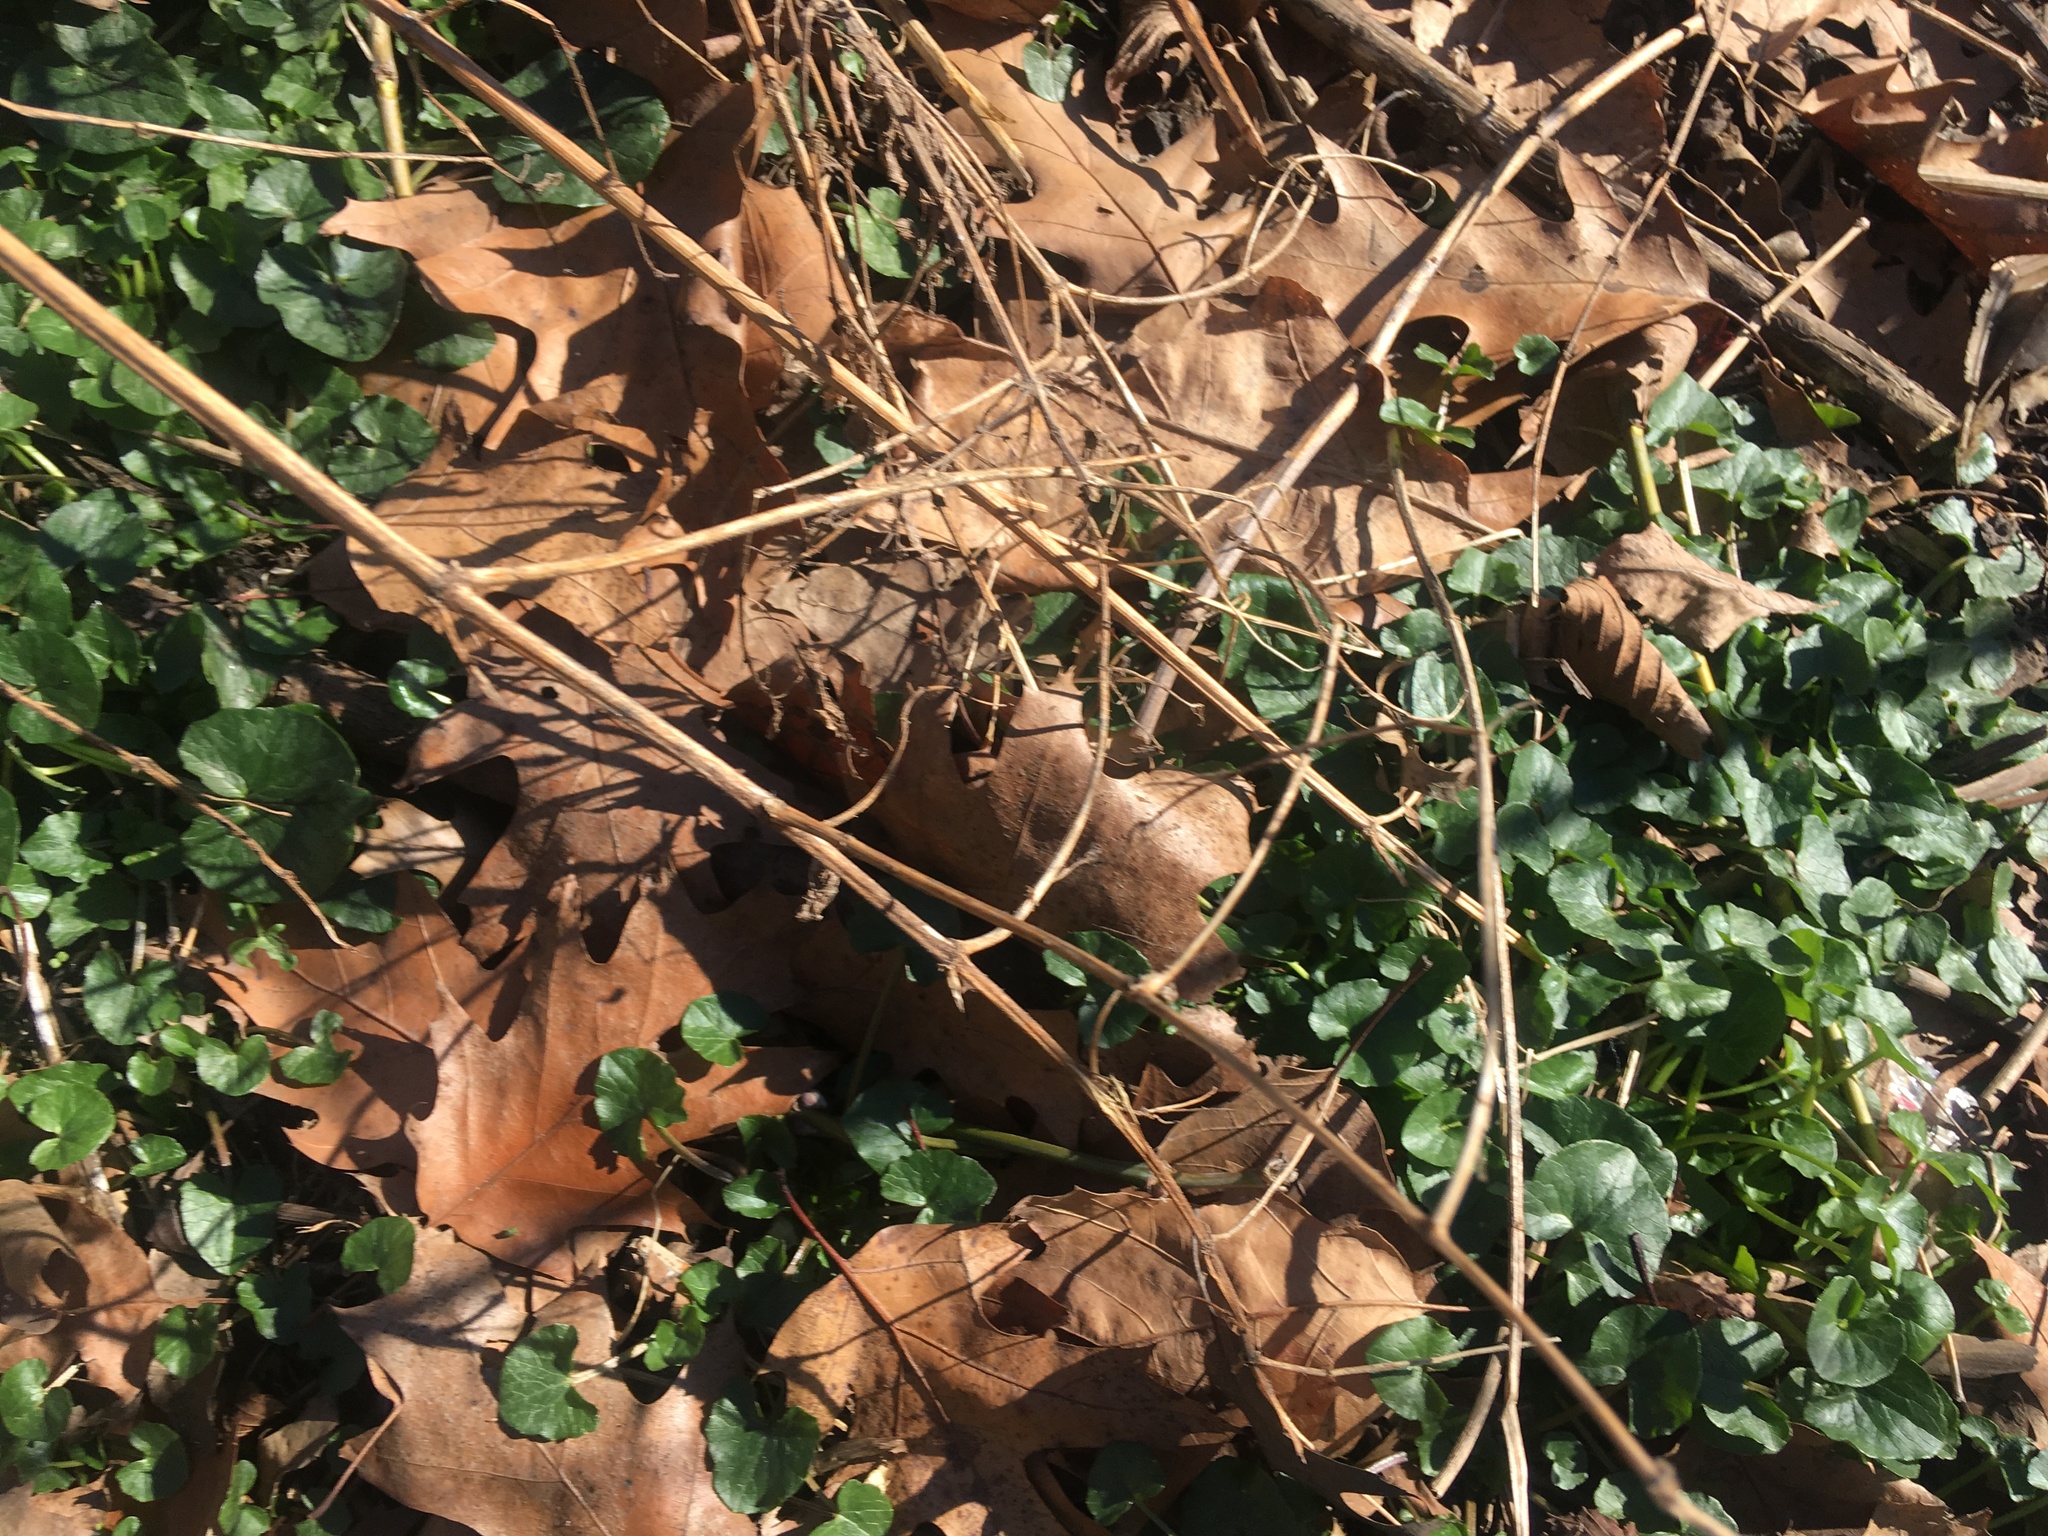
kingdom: Plantae
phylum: Tracheophyta
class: Magnoliopsida
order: Ranunculales
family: Ranunculaceae
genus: Ficaria
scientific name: Ficaria verna
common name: Lesser celandine
